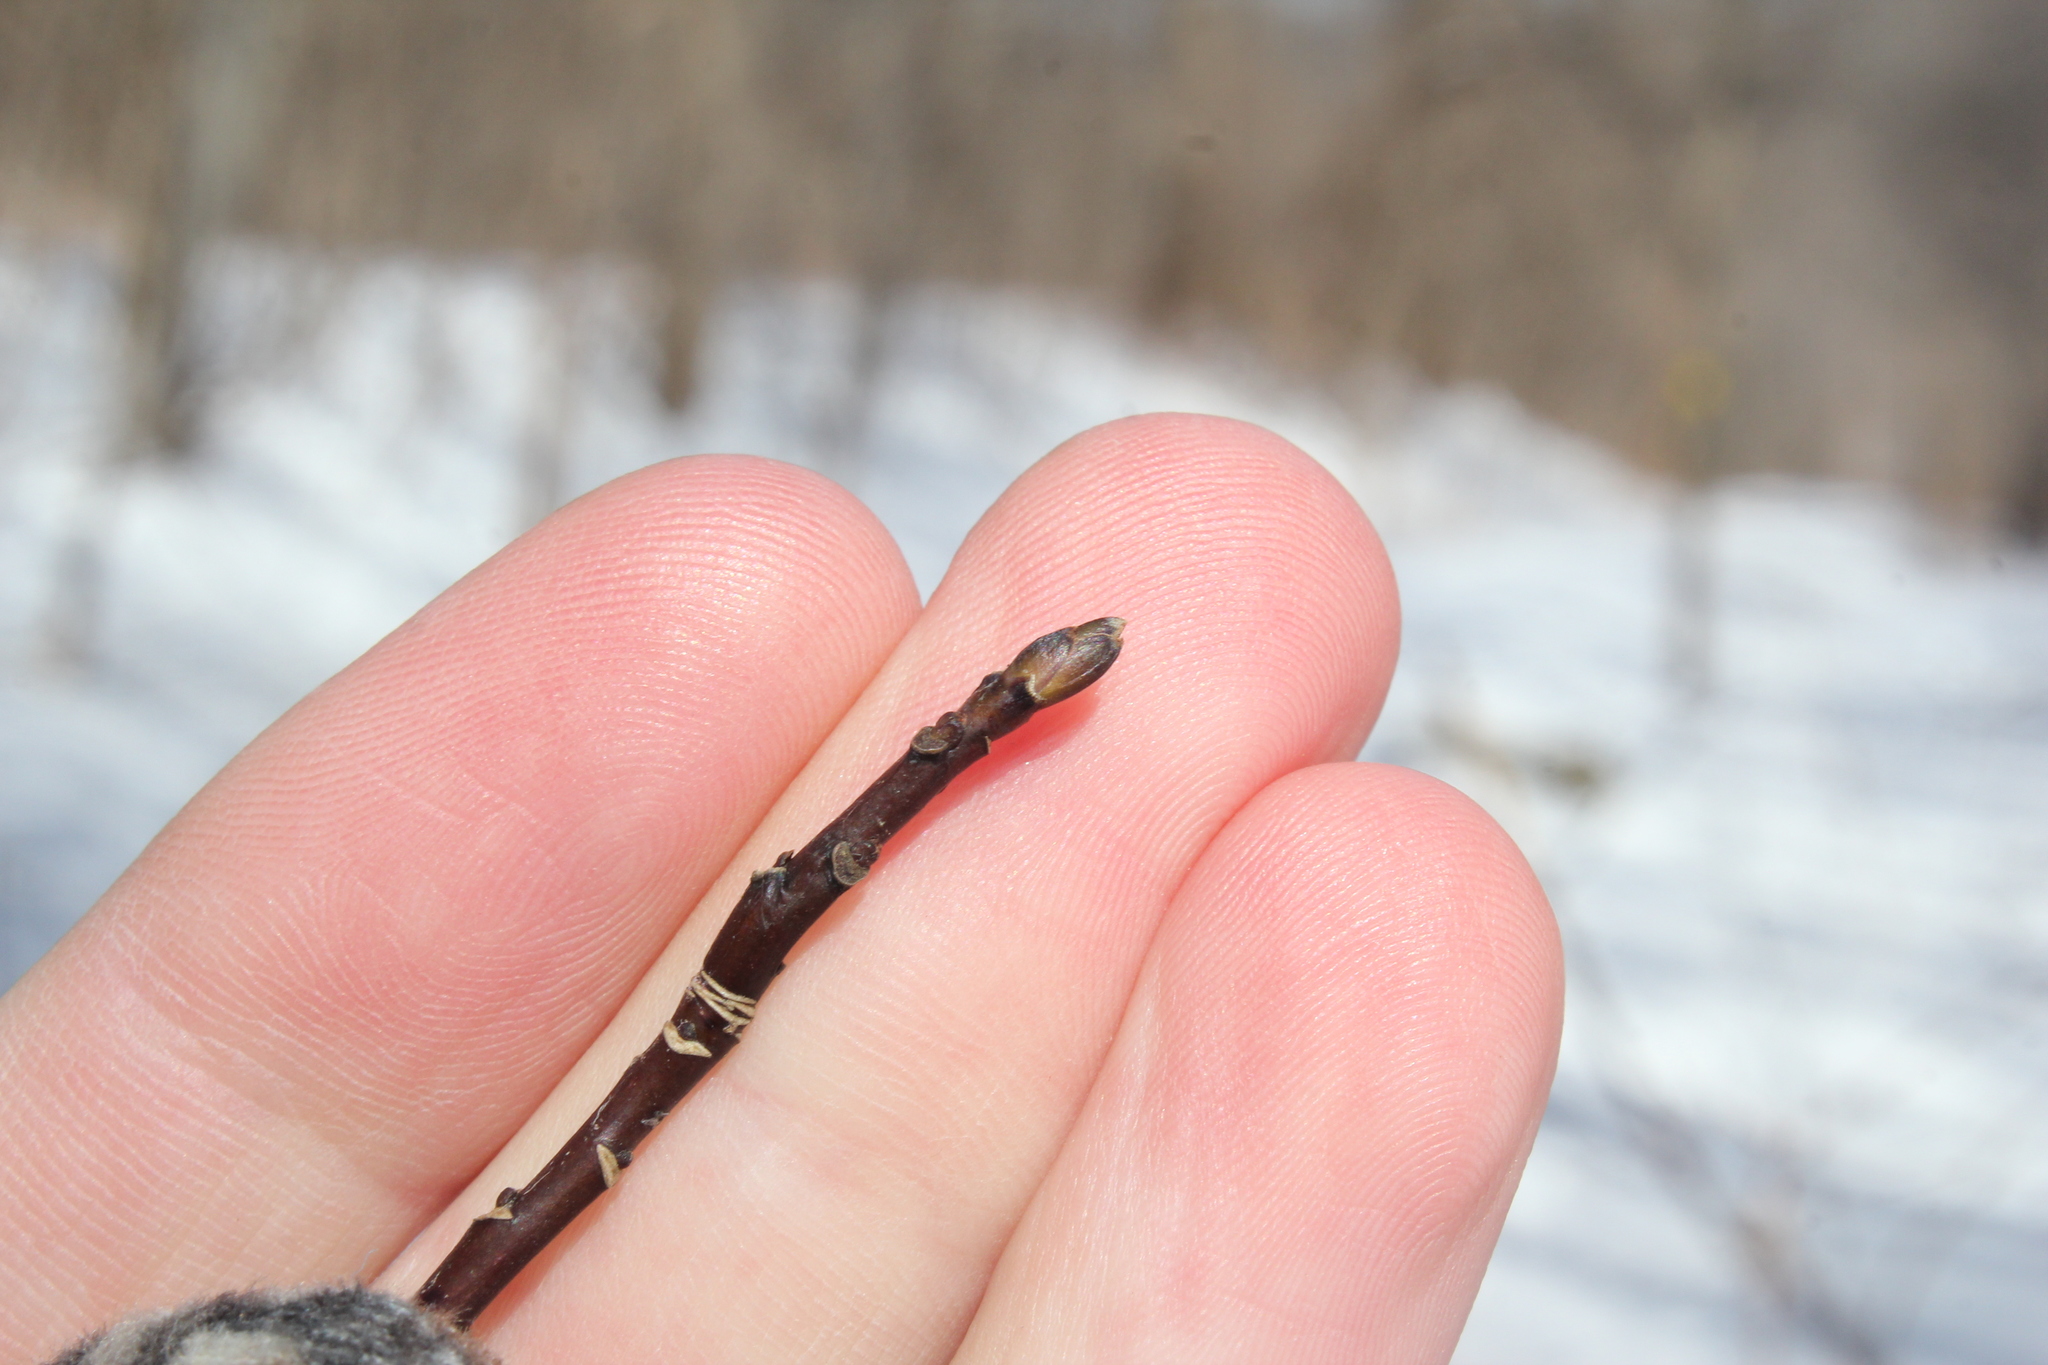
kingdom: Plantae
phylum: Tracheophyta
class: Magnoliopsida
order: Cornales
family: Cornaceae
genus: Cornus
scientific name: Cornus alternifolia
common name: Pagoda dogwood
